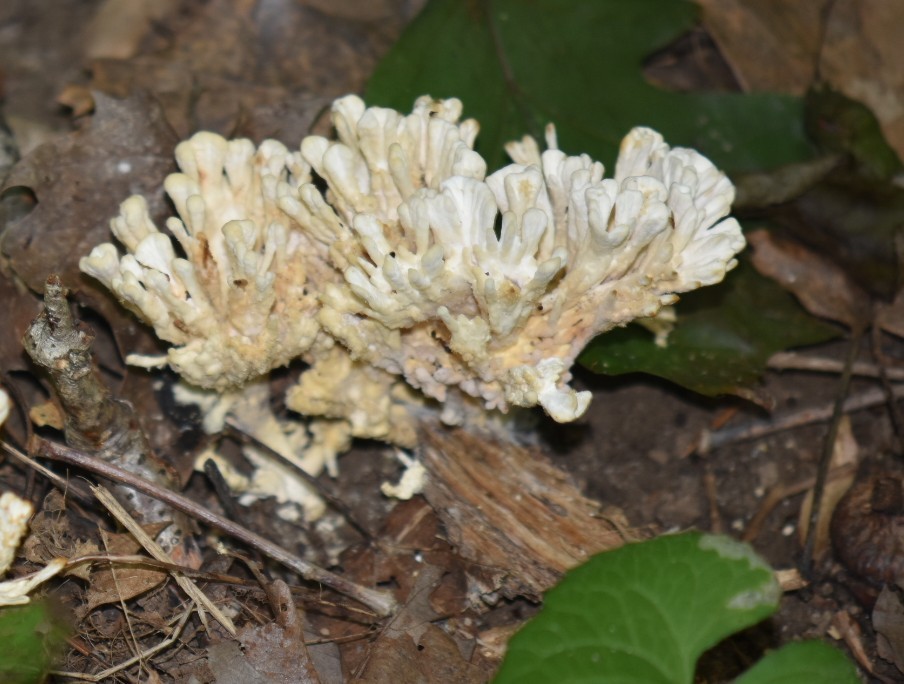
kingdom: Fungi
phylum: Basidiomycota
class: Agaricomycetes
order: Sebacinales
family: Sebacinaceae
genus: Sebacina
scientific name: Sebacina schweinitzii
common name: Jellied false coral fungus
